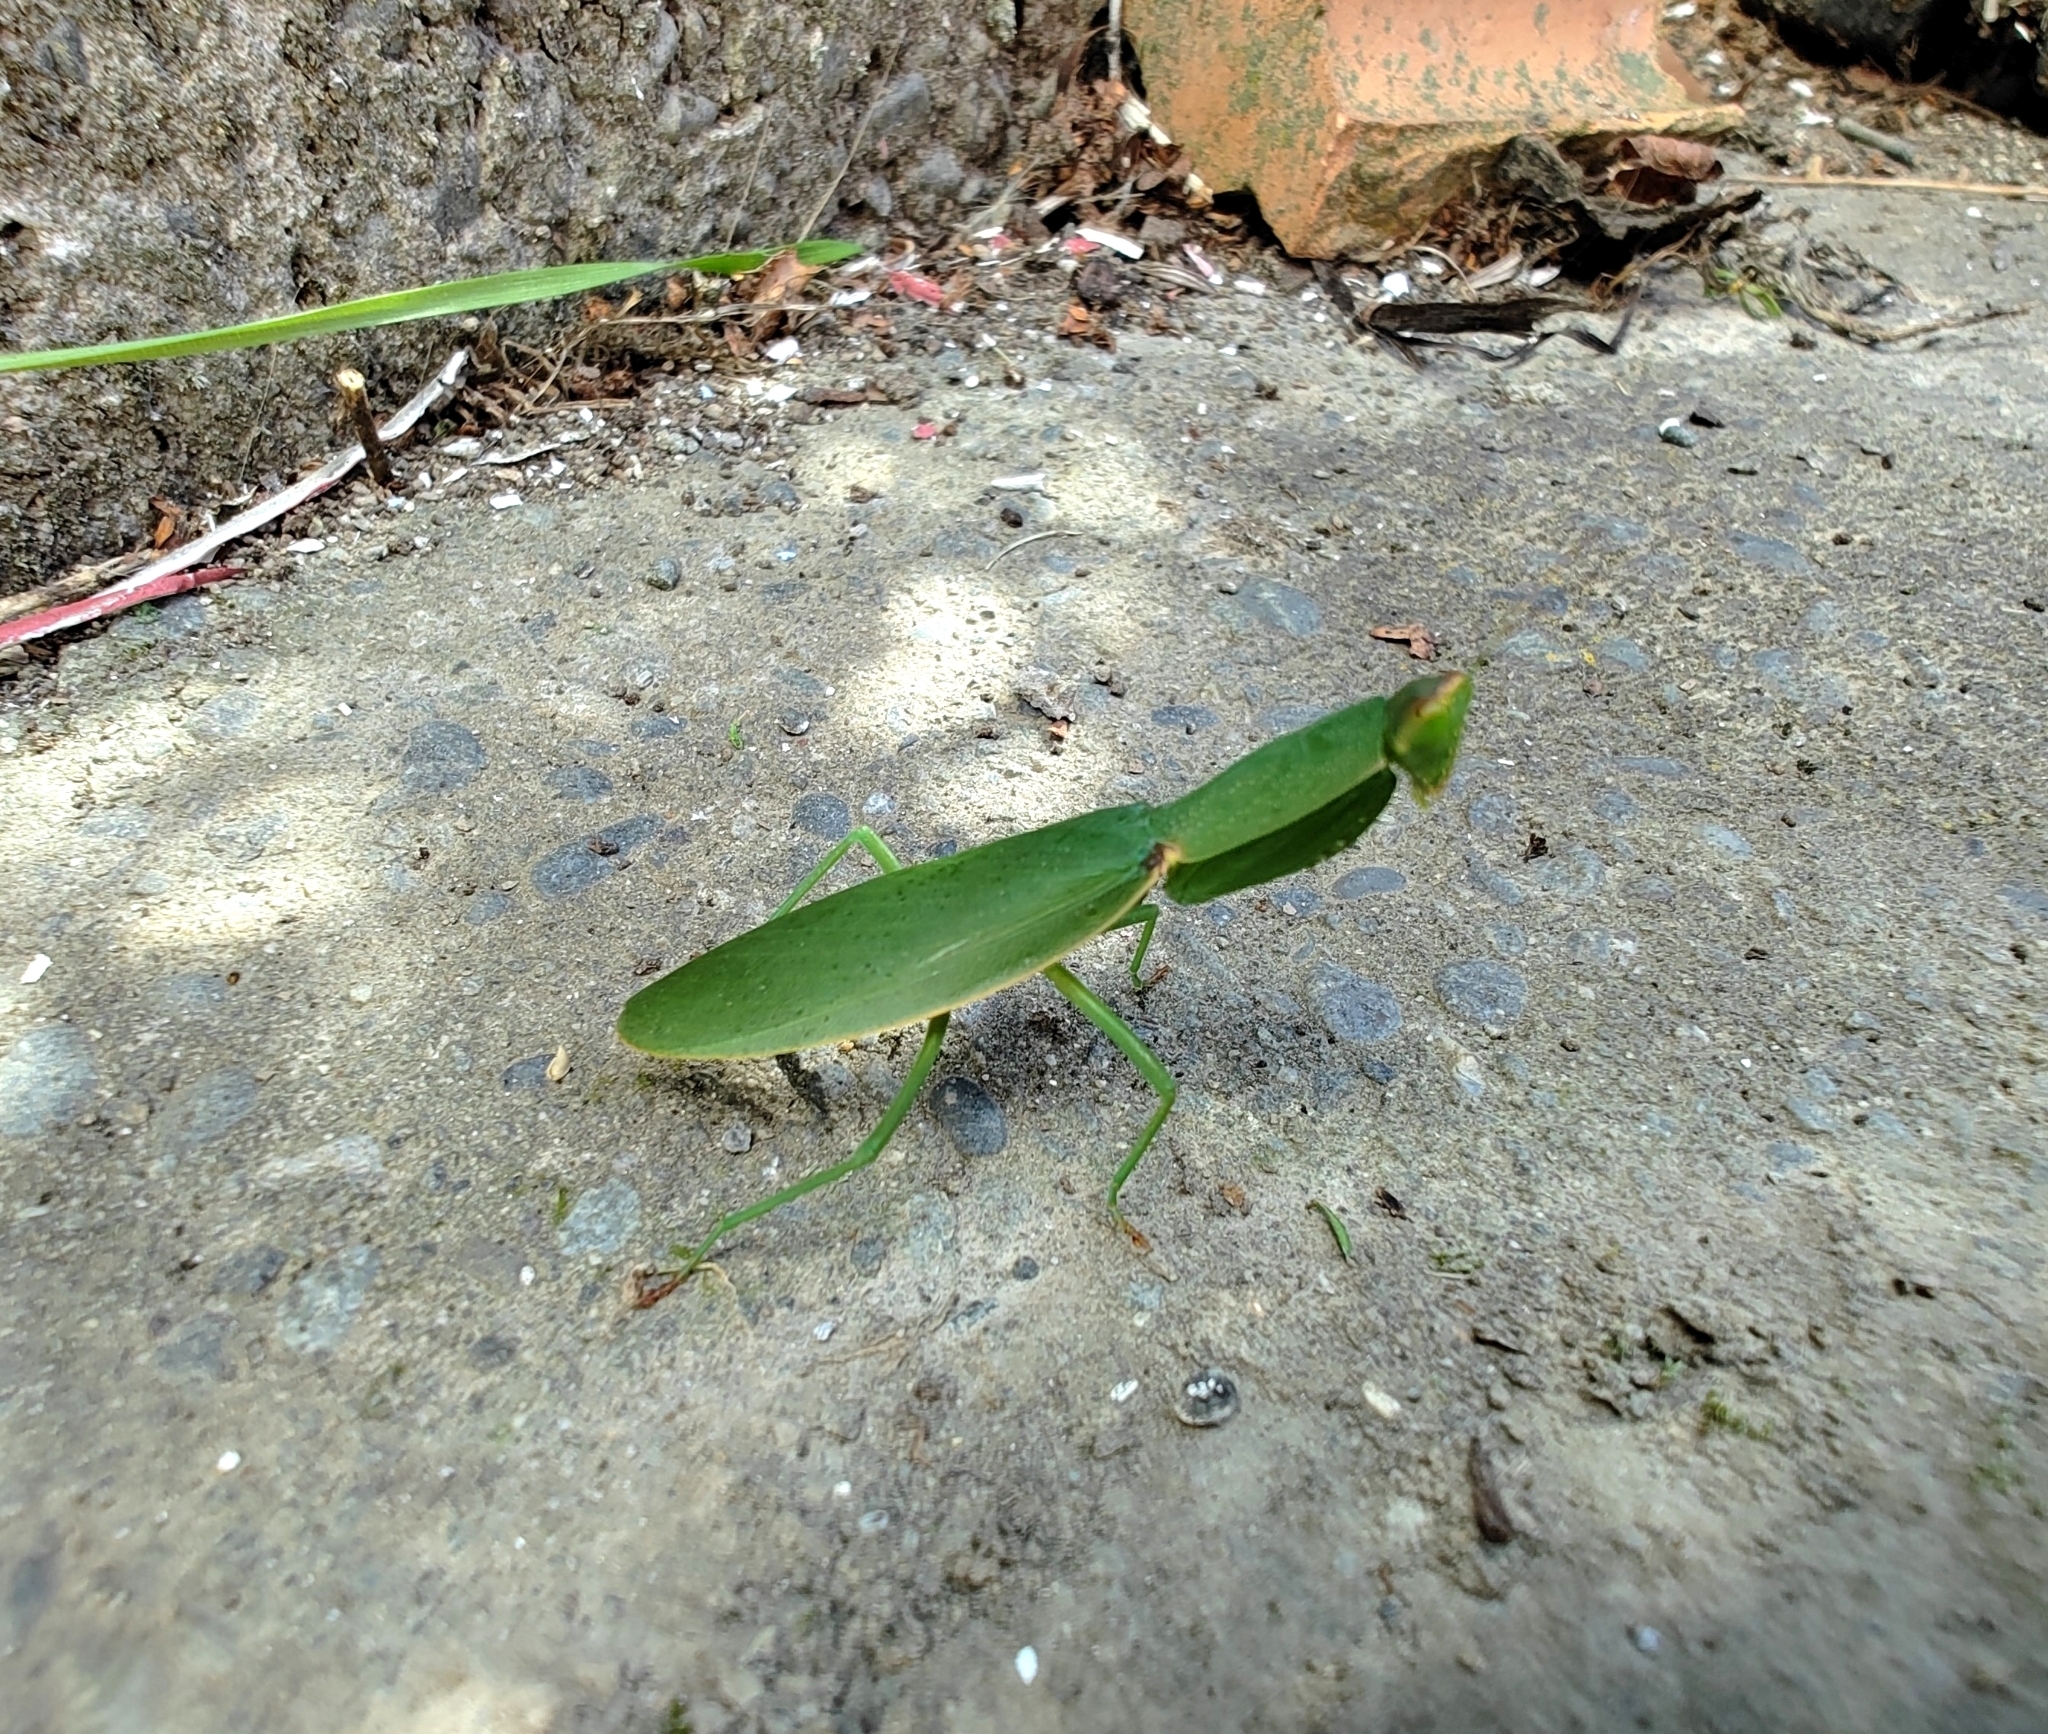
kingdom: Animalia
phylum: Arthropoda
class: Insecta
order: Mantodea
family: Mantidae
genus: Orthodera
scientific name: Orthodera novaezealandiae
